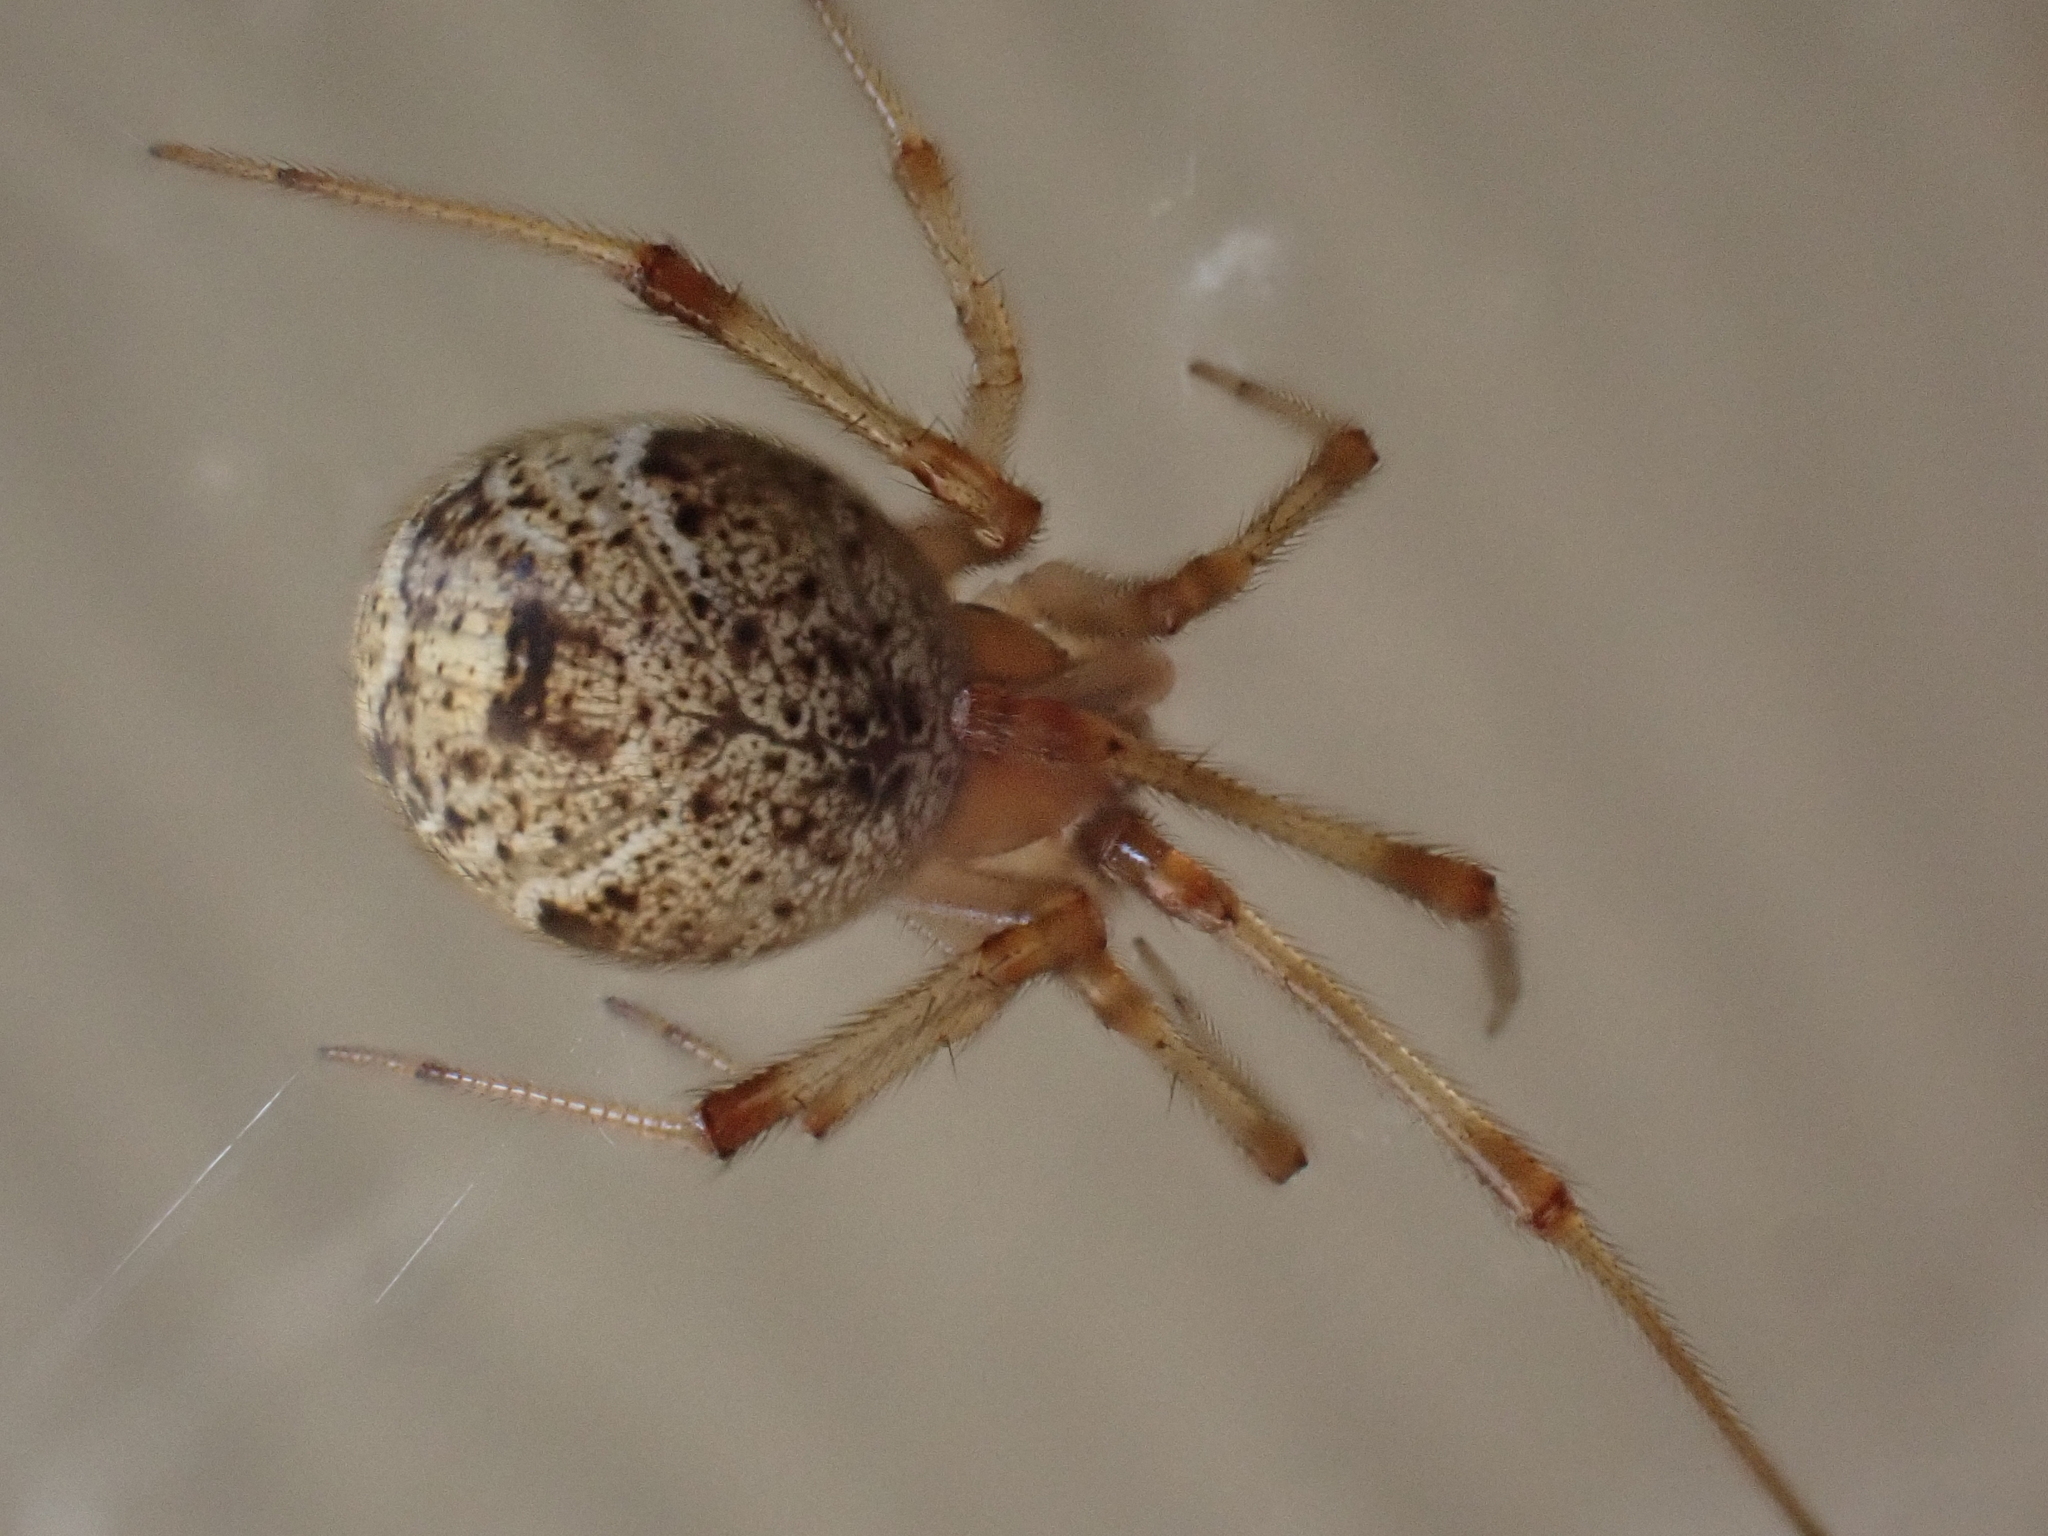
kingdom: Animalia
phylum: Arthropoda
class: Arachnida
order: Araneae
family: Theridiidae
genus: Parasteatoda
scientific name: Parasteatoda tepidariorum
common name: Common house spider
